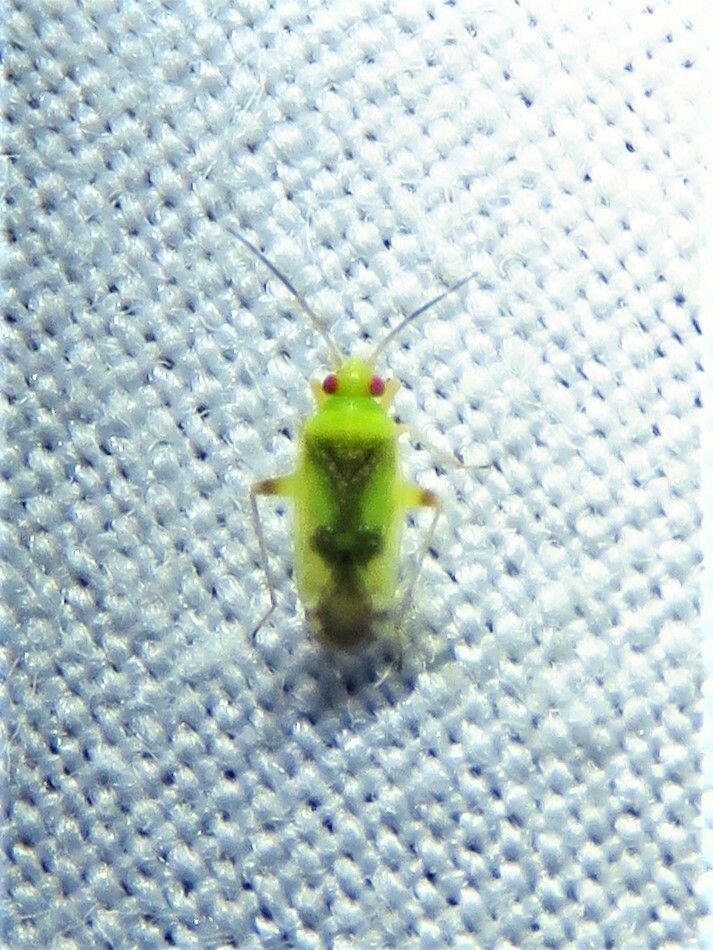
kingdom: Animalia
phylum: Arthropoda
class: Insecta
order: Hemiptera
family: Miridae
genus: Reuteroscopus
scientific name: Reuteroscopus femoralis
